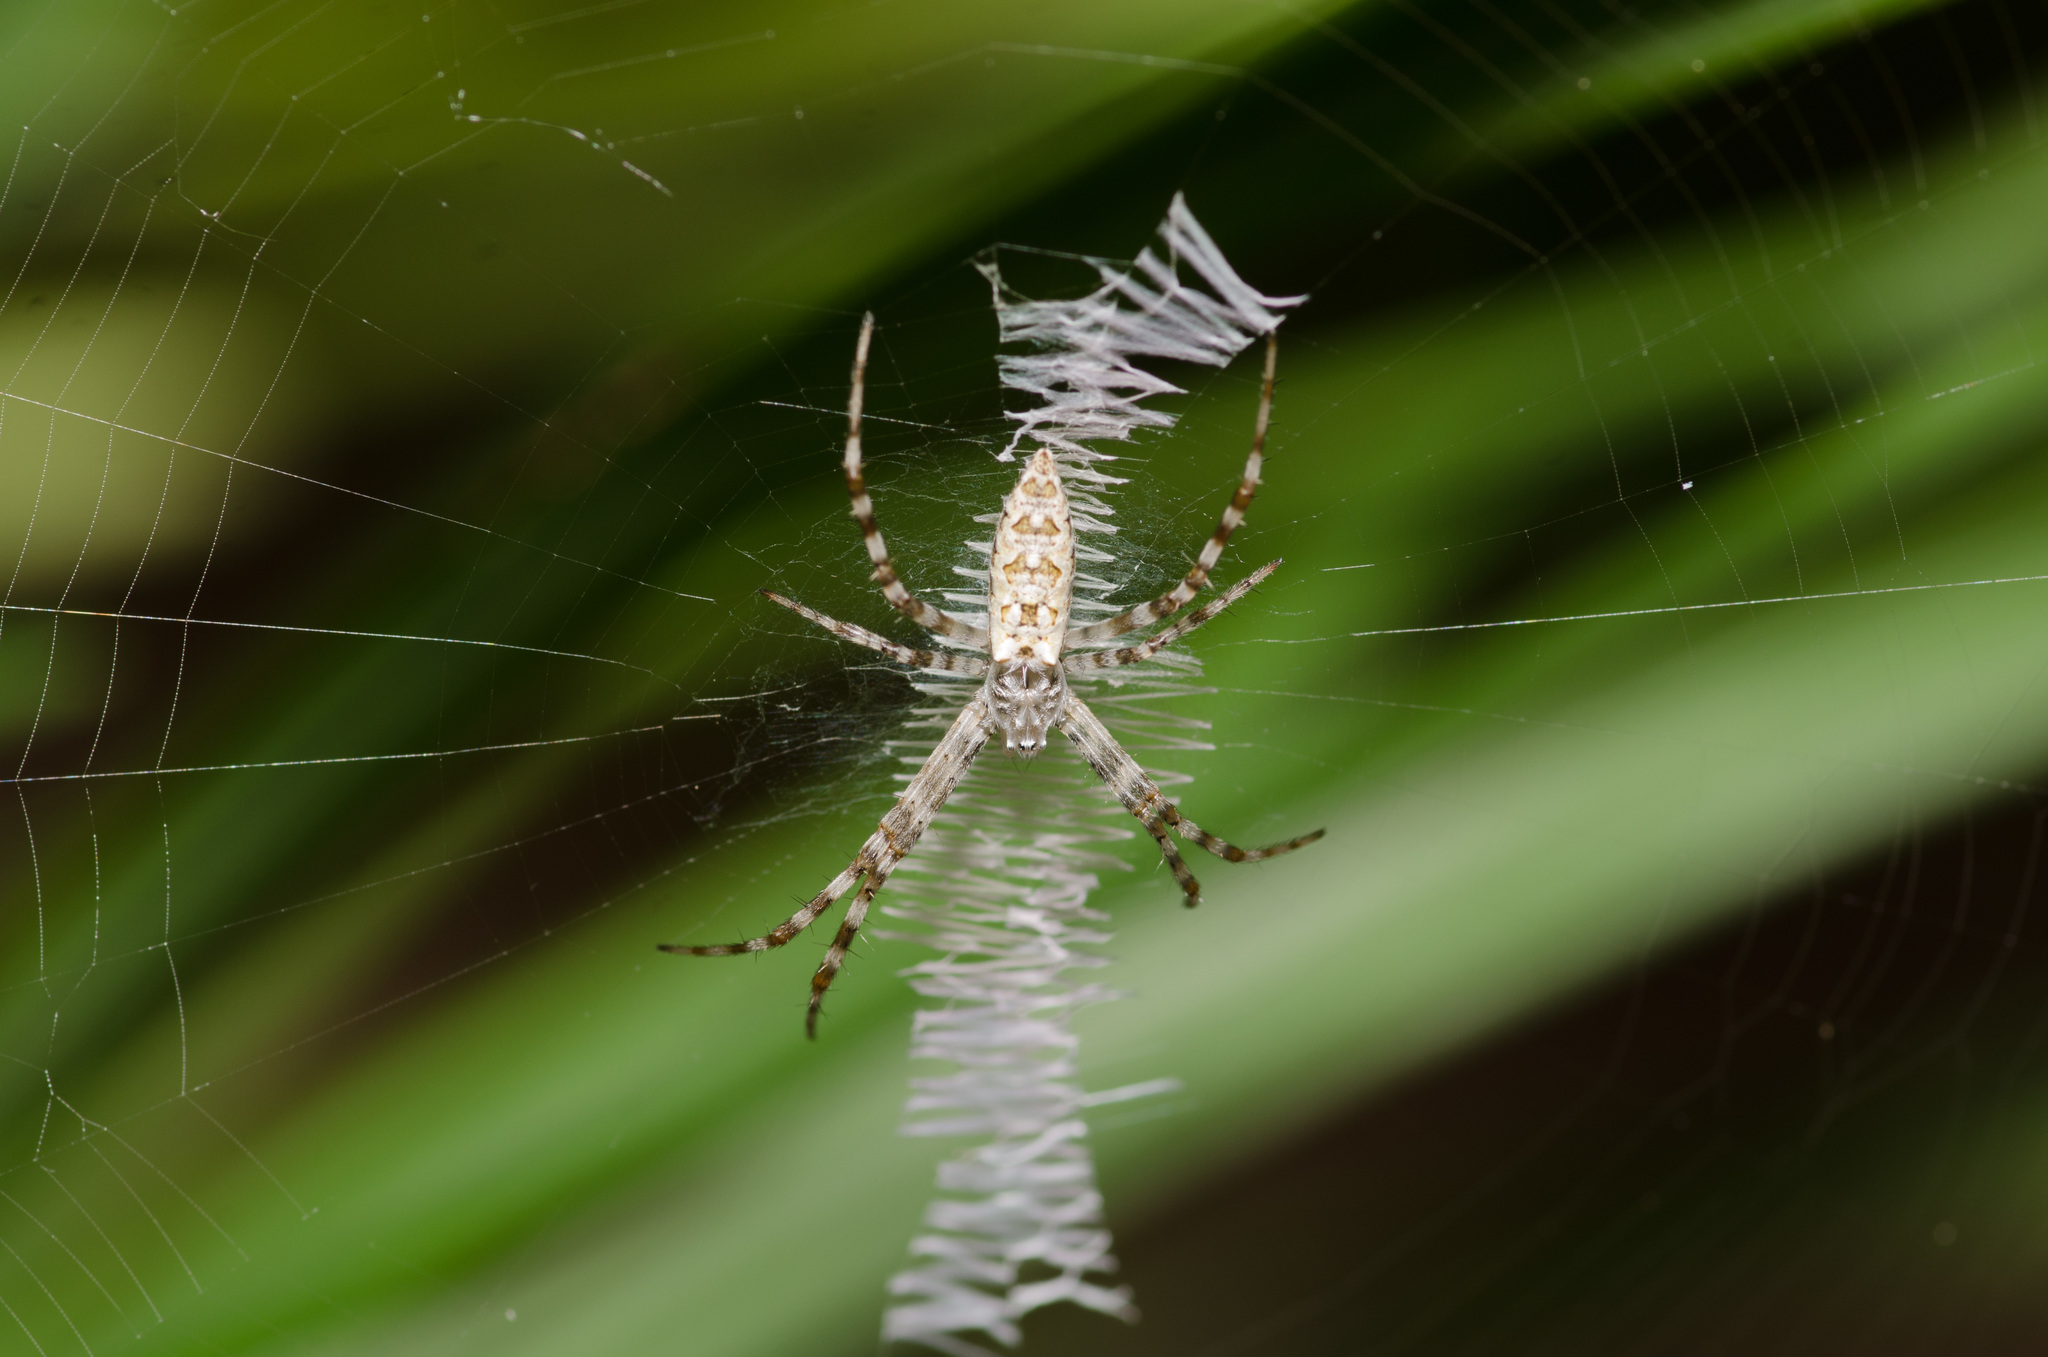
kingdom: Animalia
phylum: Arthropoda
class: Arachnida
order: Araneae
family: Araneidae
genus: Argiope
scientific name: Argiope aurantia
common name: Orb weavers
